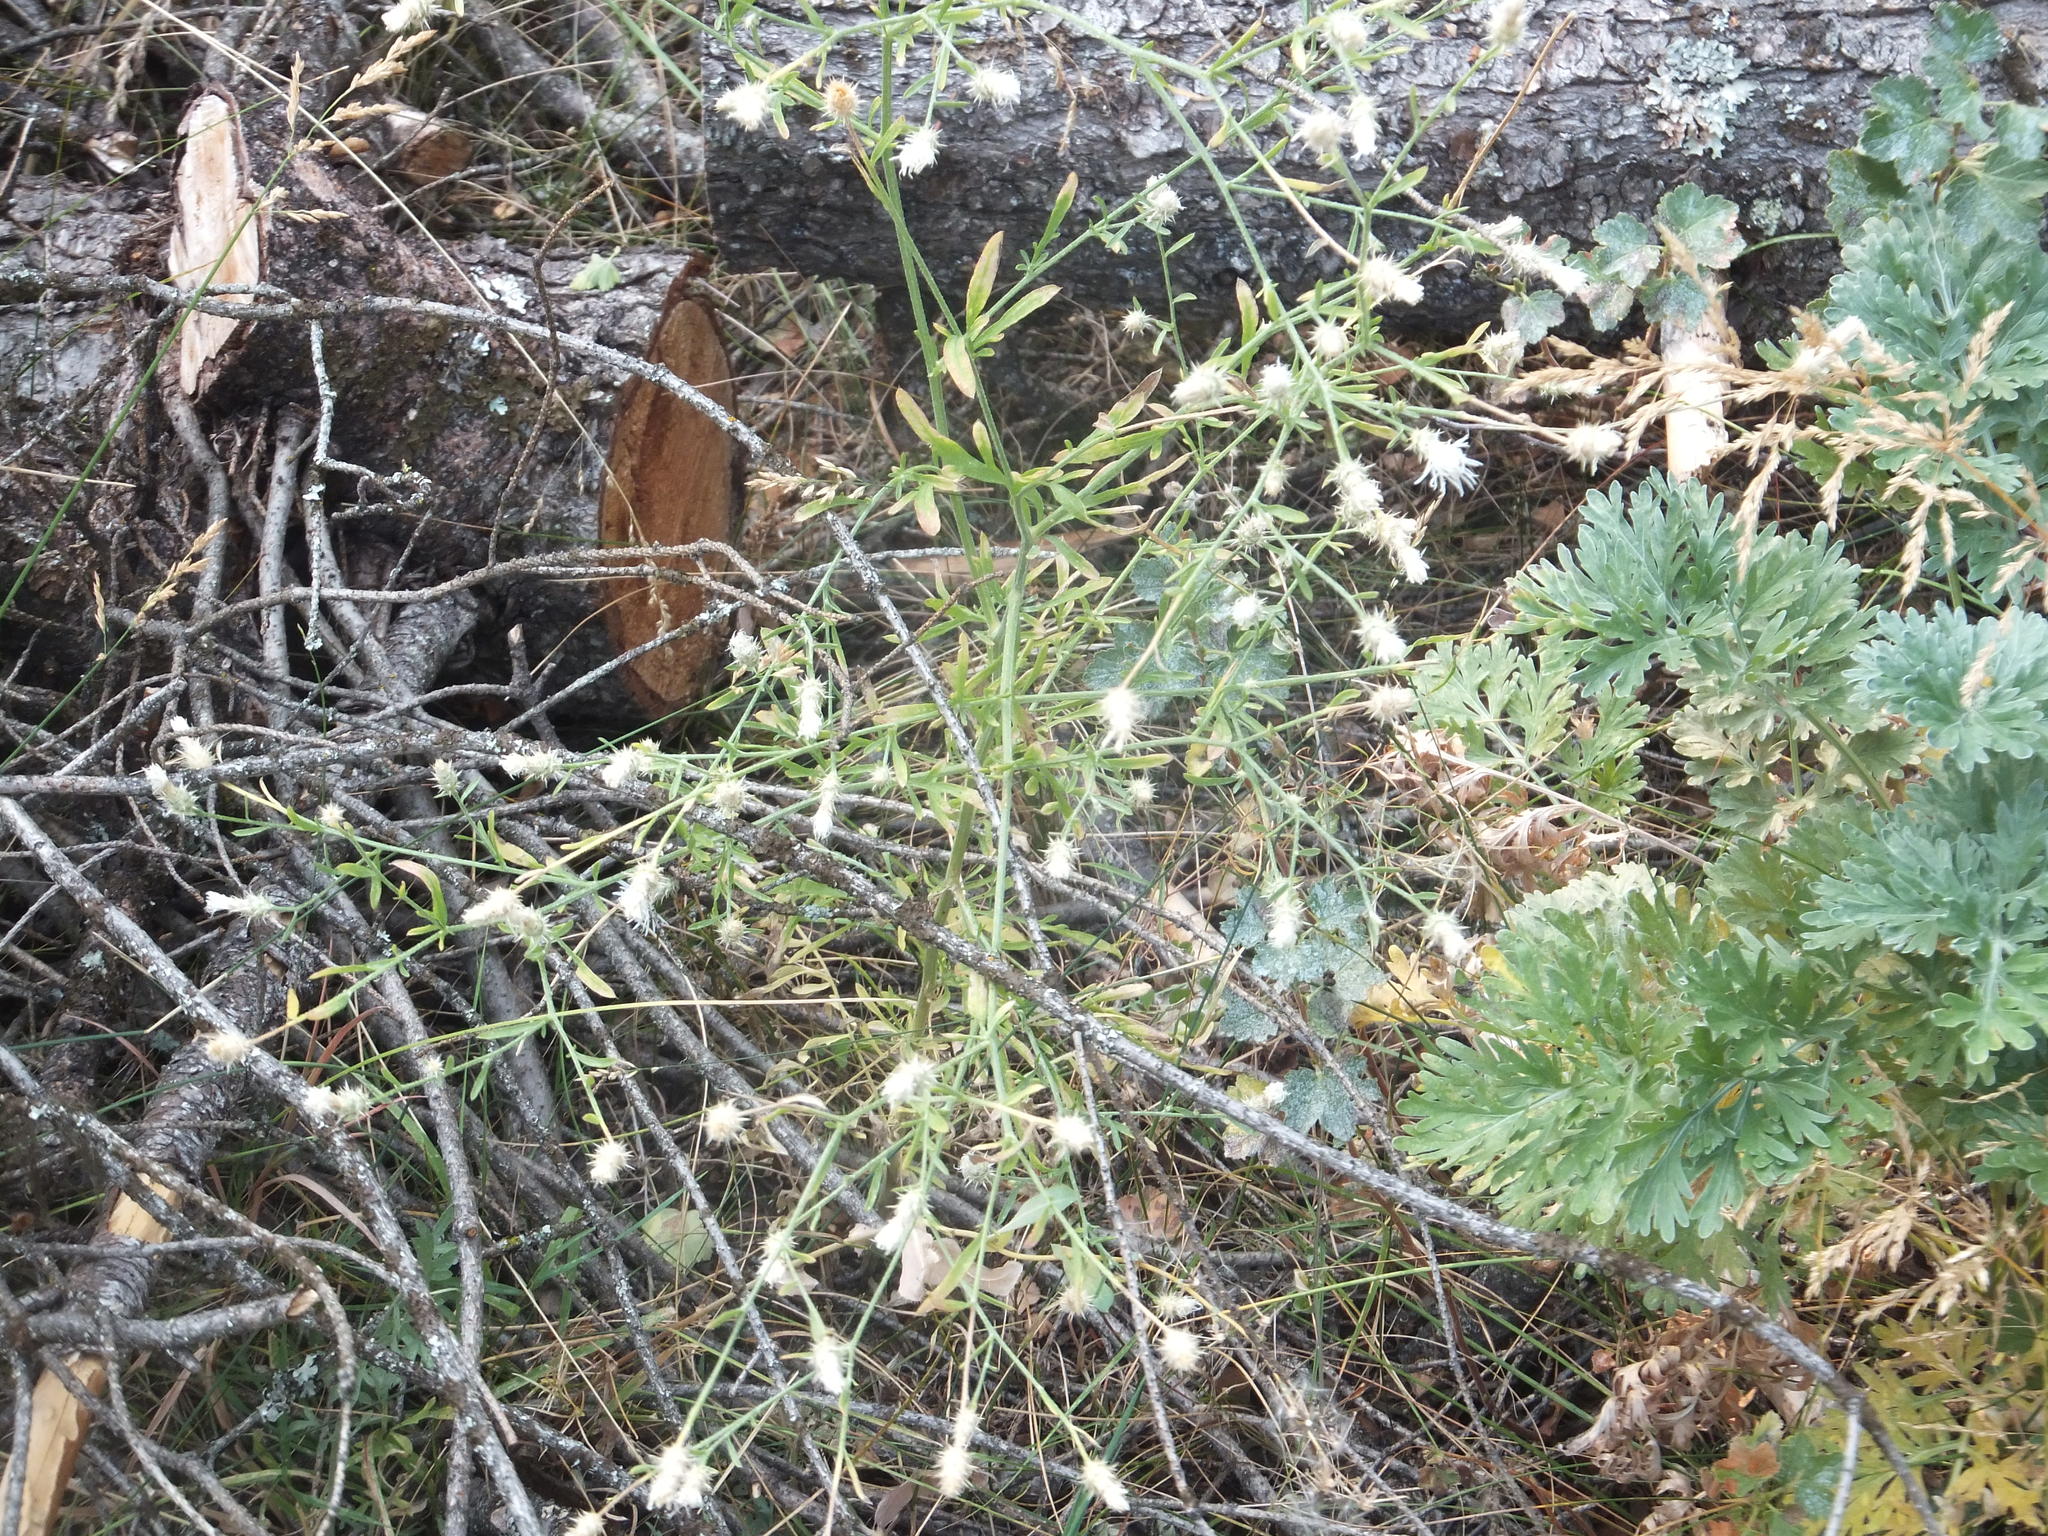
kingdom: Plantae
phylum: Tracheophyta
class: Magnoliopsida
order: Asterales
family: Asteraceae
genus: Centaurea
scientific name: Centaurea diffusa
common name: Diffuse knapweed
